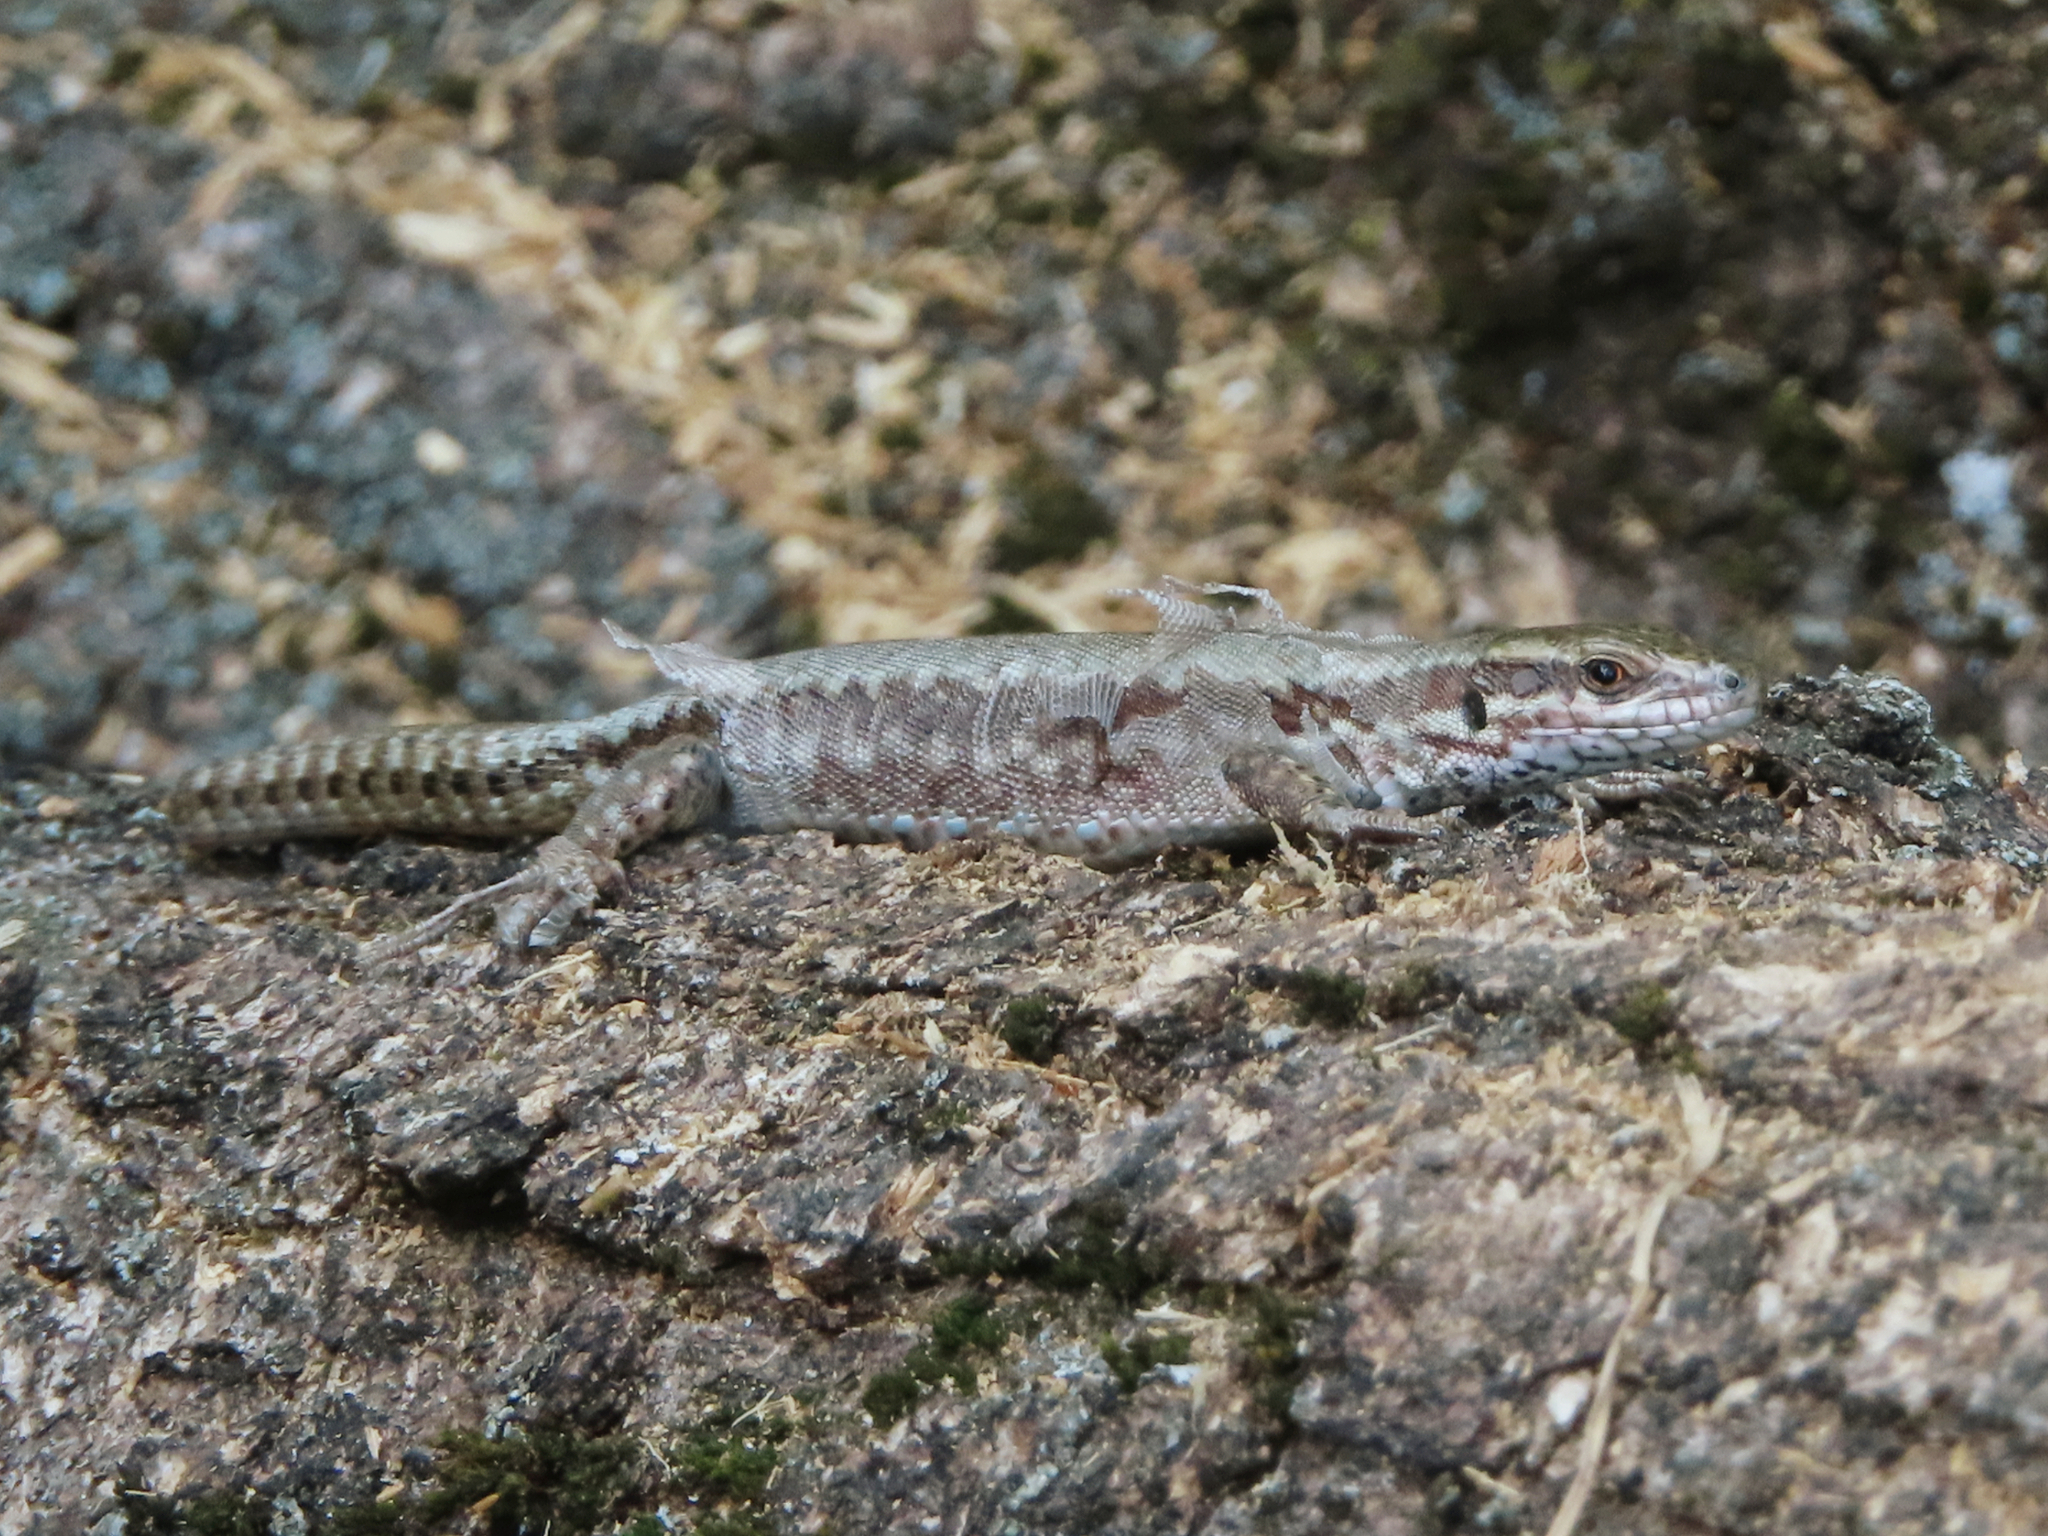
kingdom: Animalia
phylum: Chordata
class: Squamata
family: Lacertidae
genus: Podarcis
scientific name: Podarcis muralis
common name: Common wall lizard
